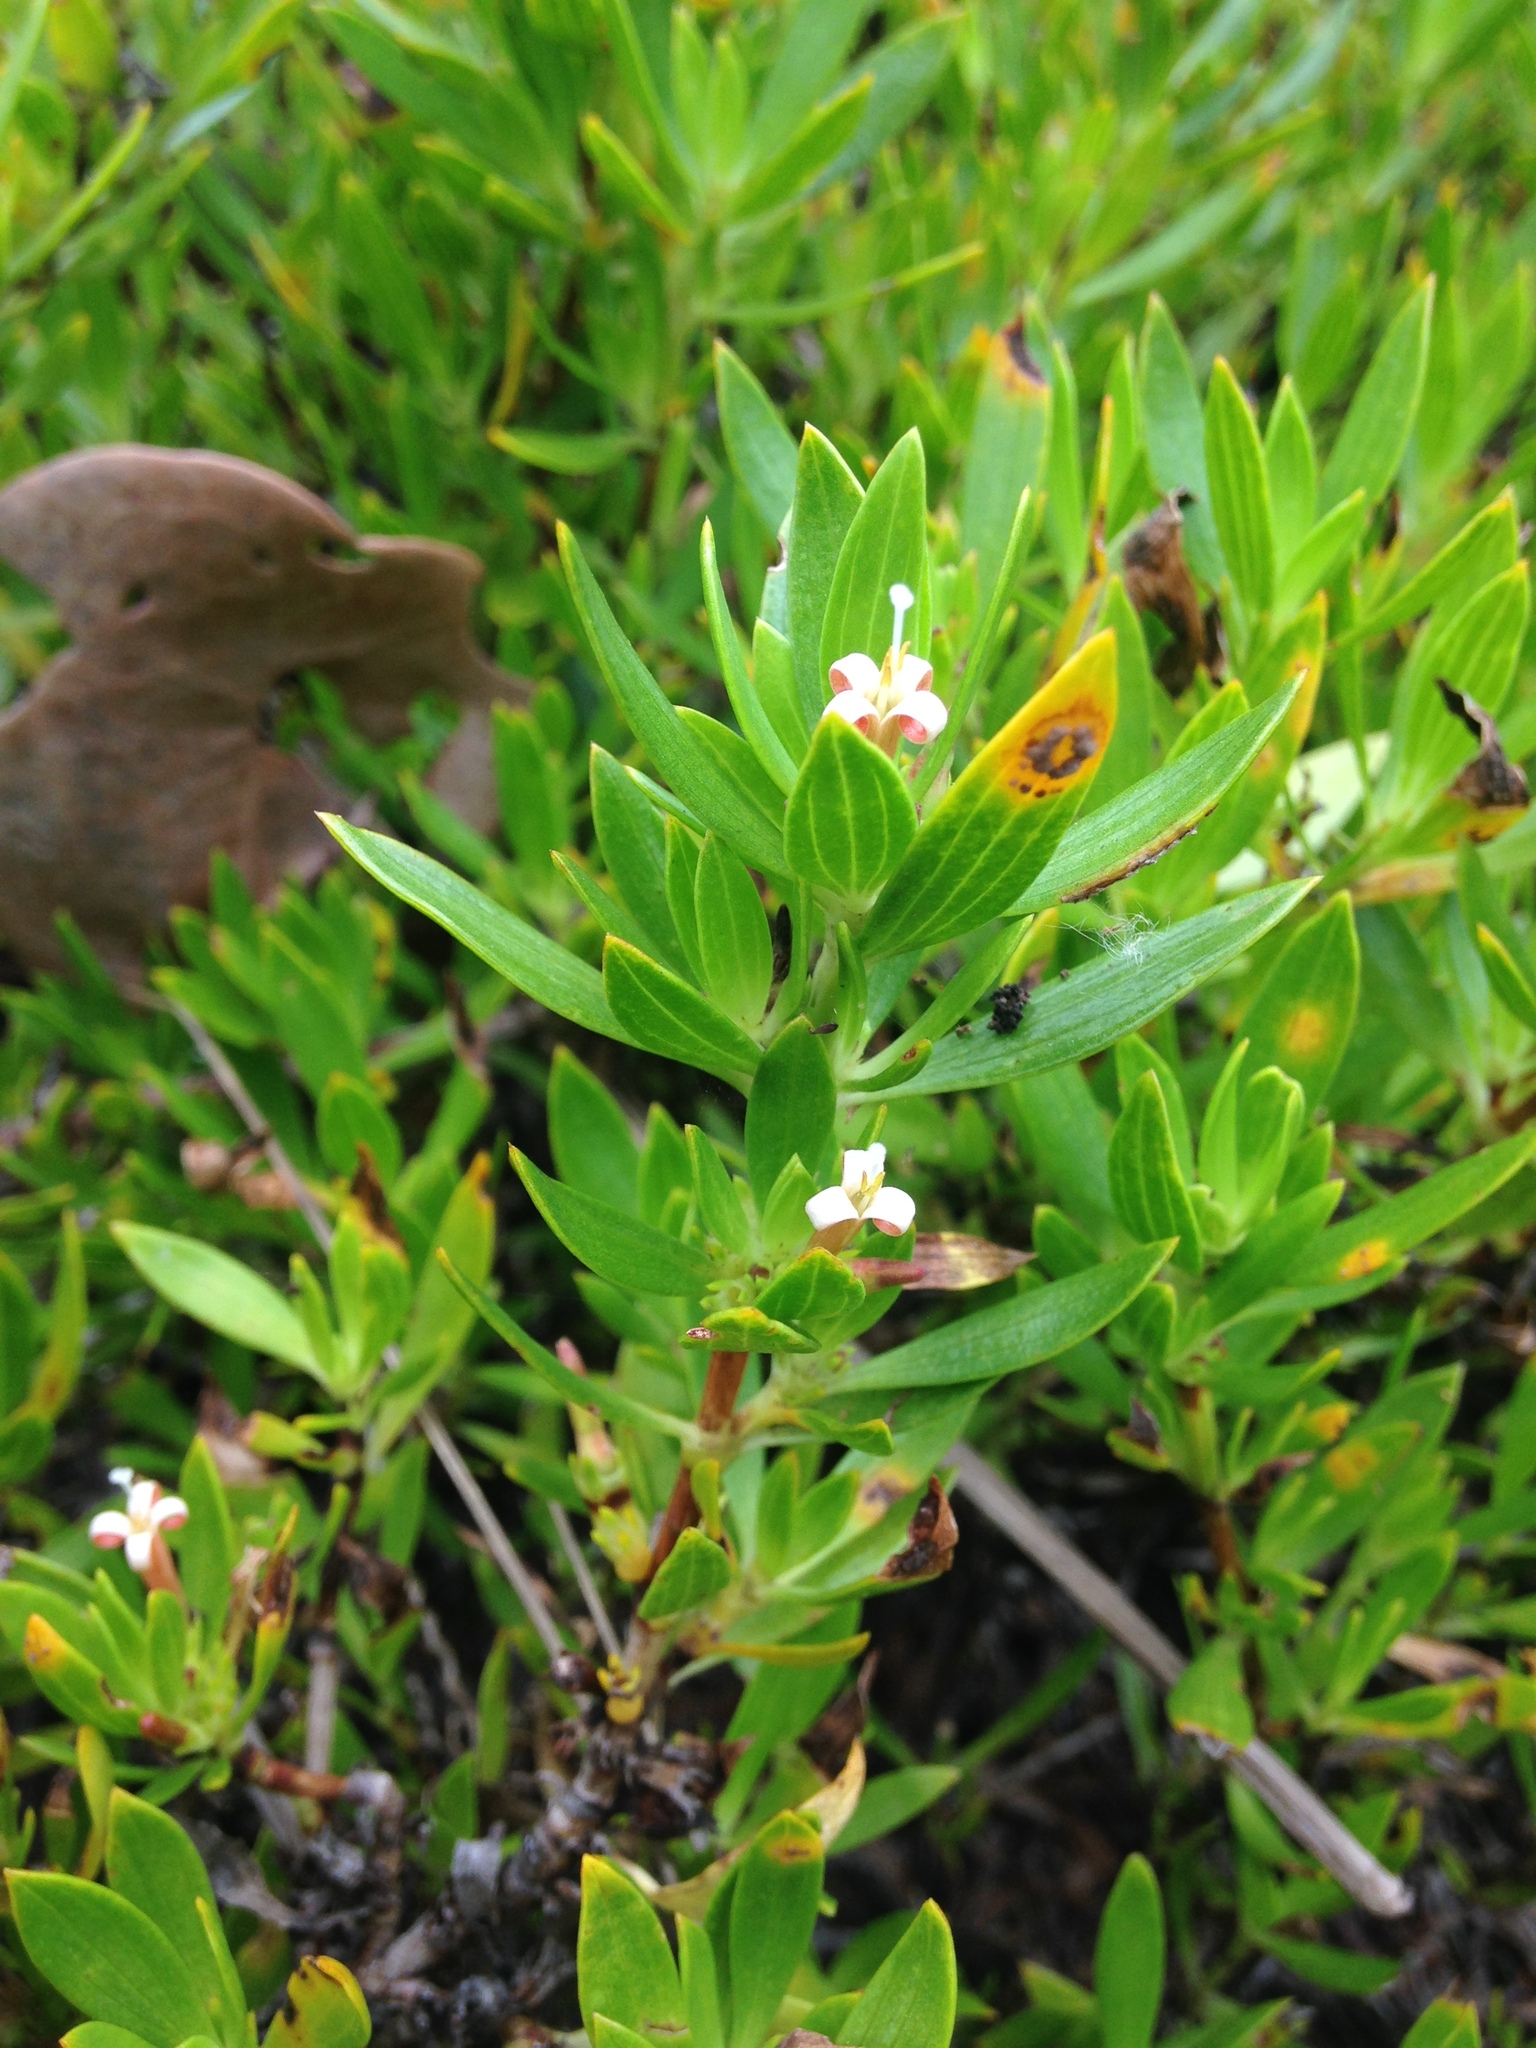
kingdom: Plantae
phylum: Tracheophyta
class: Magnoliopsida
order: Gentianales
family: Rubiaceae
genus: Ernodea
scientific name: Ernodea littoralis
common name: Beach creeper
